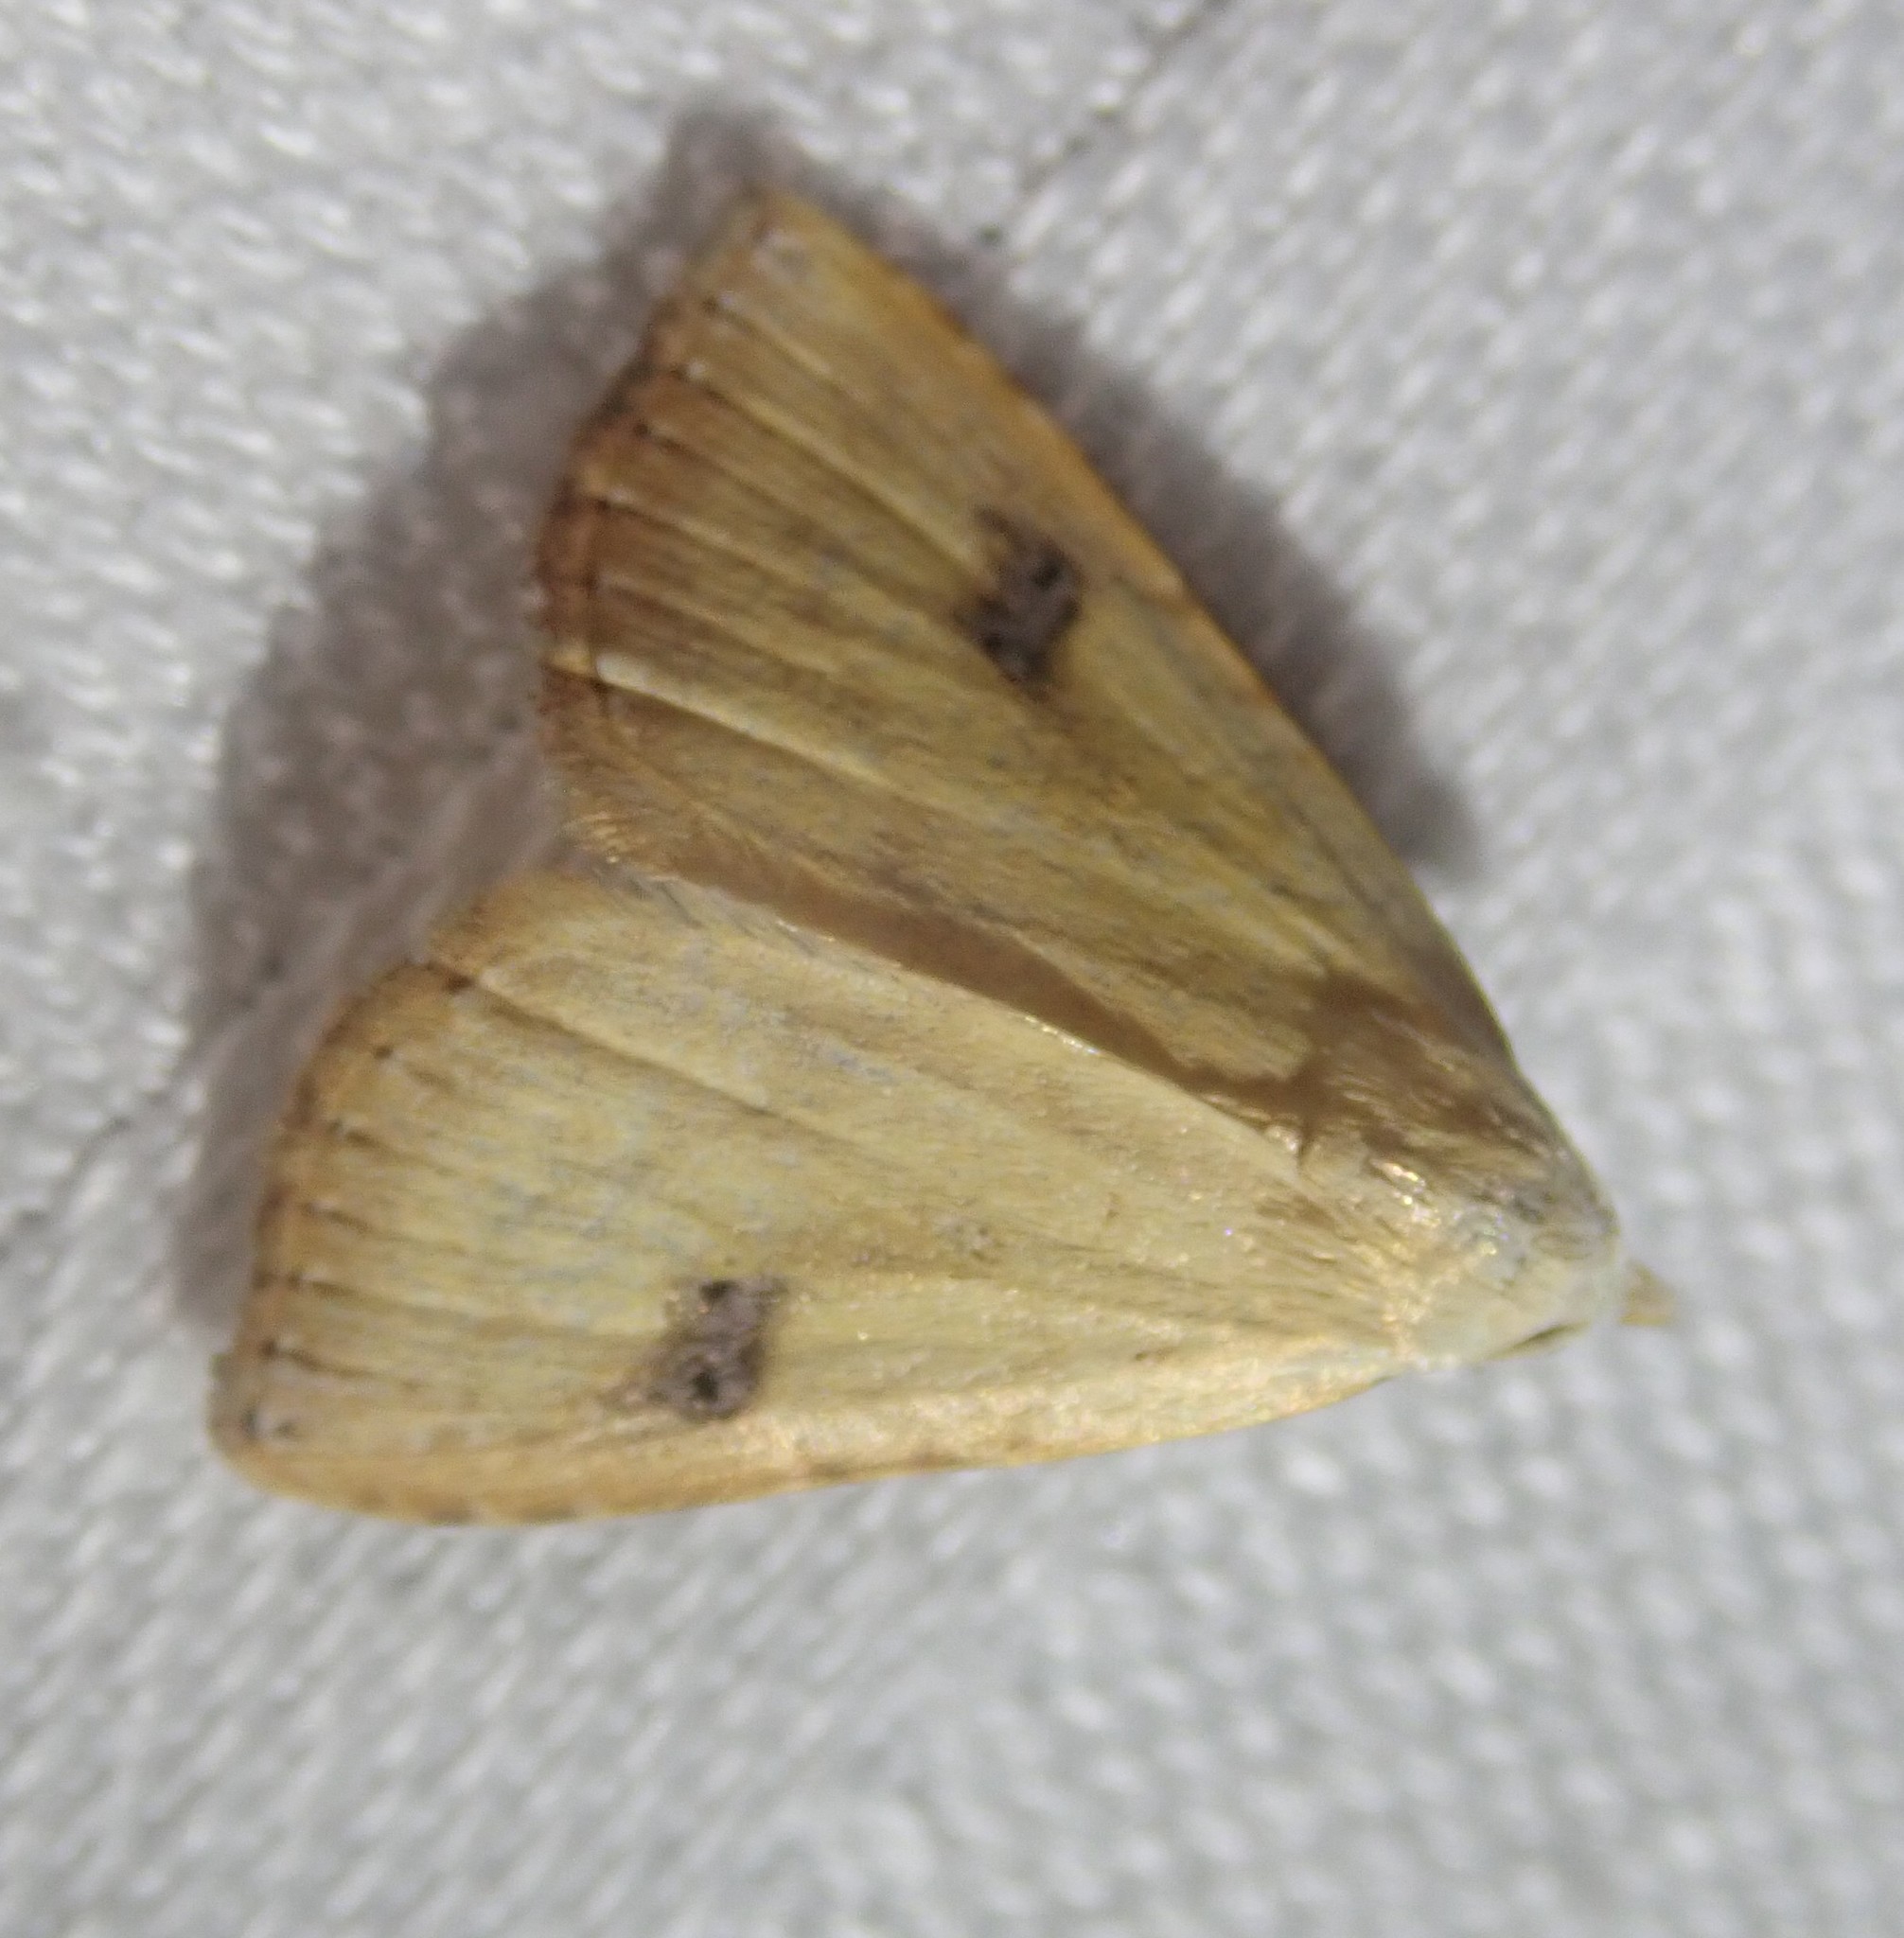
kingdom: Animalia
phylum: Arthropoda
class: Insecta
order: Lepidoptera
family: Erebidae
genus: Rivula
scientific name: Rivula sericealis
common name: Straw dot
